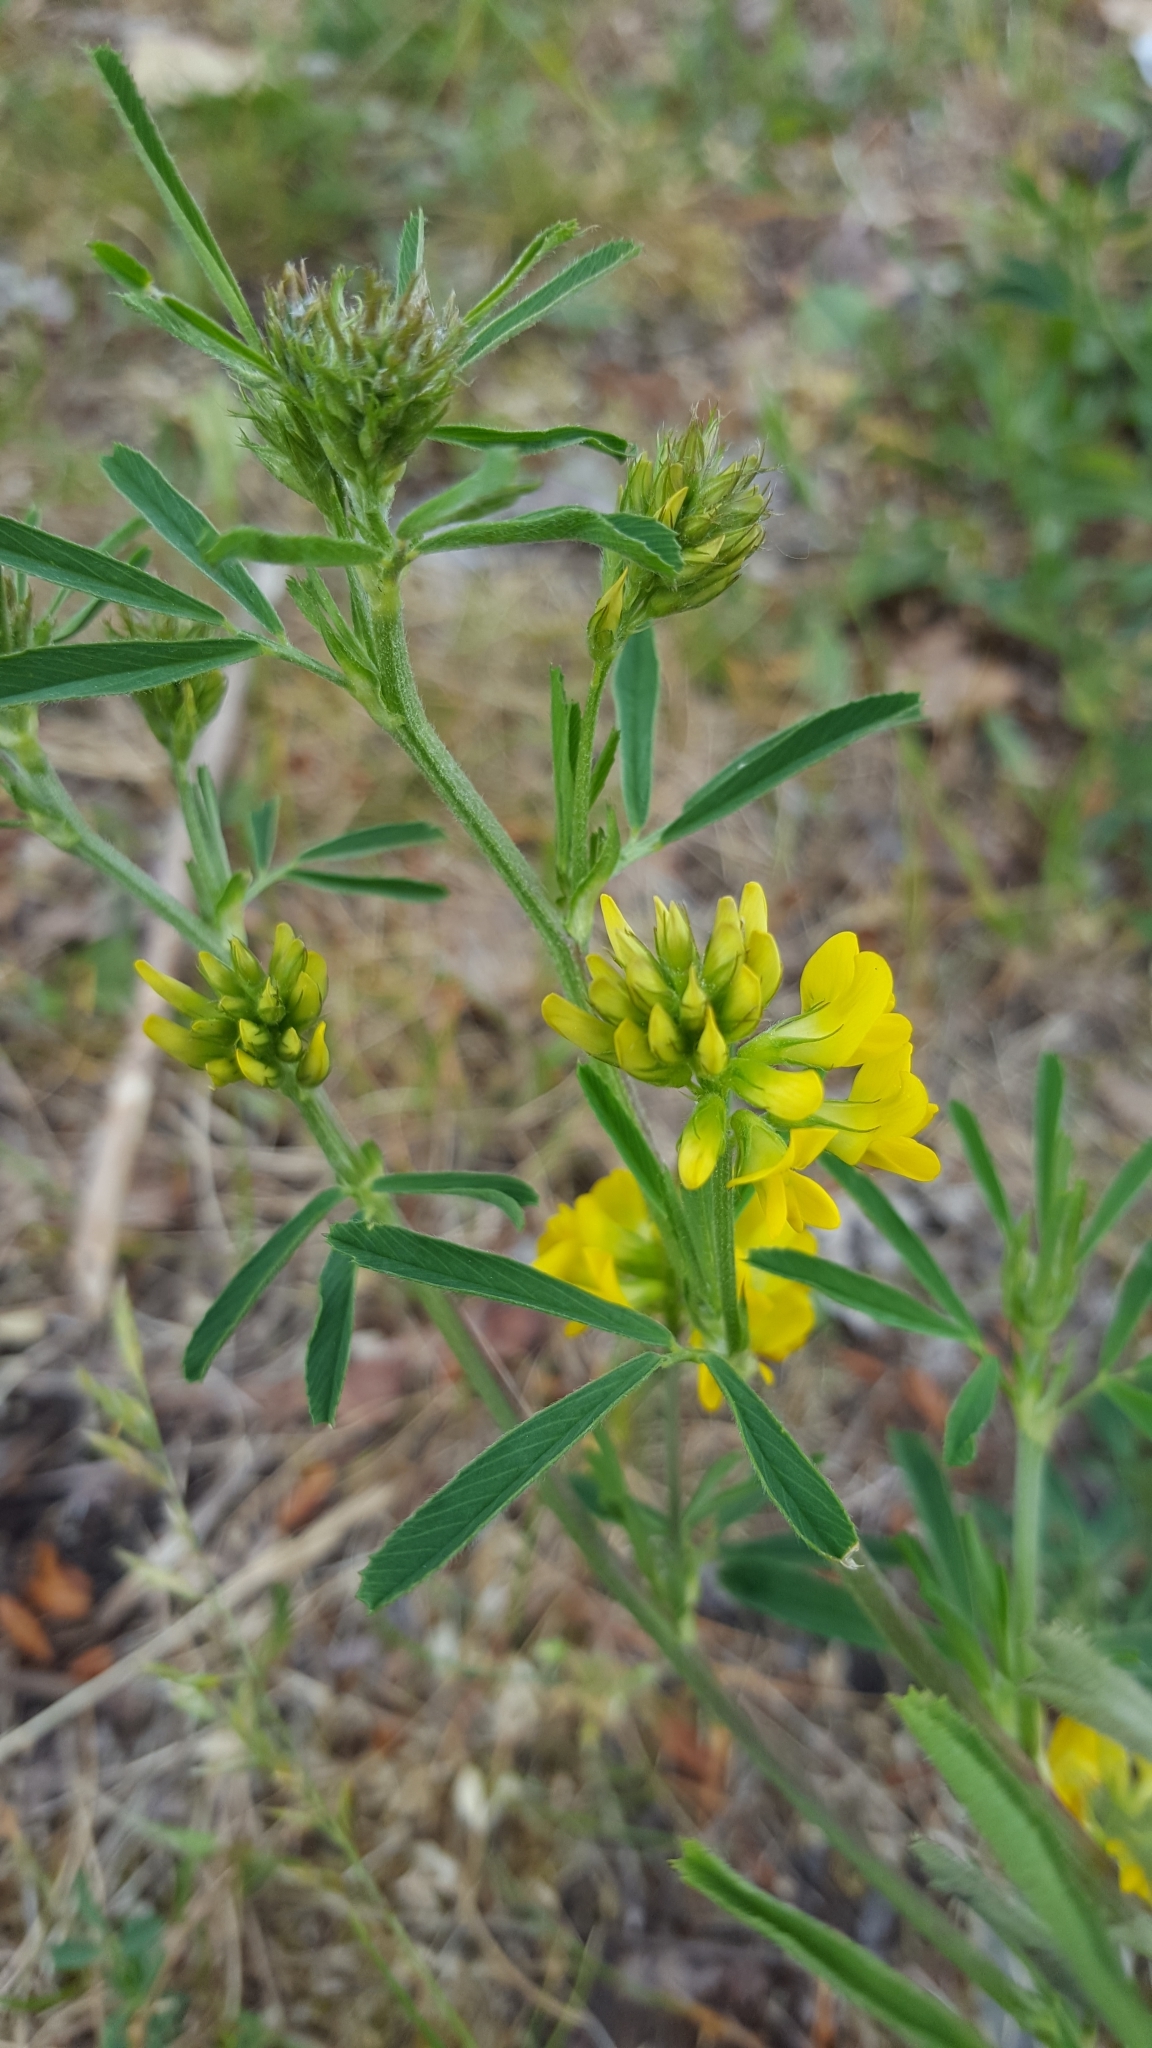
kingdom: Plantae
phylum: Tracheophyta
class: Magnoliopsida
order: Fabales
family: Fabaceae
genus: Medicago
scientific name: Medicago falcata
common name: Sickle medick
